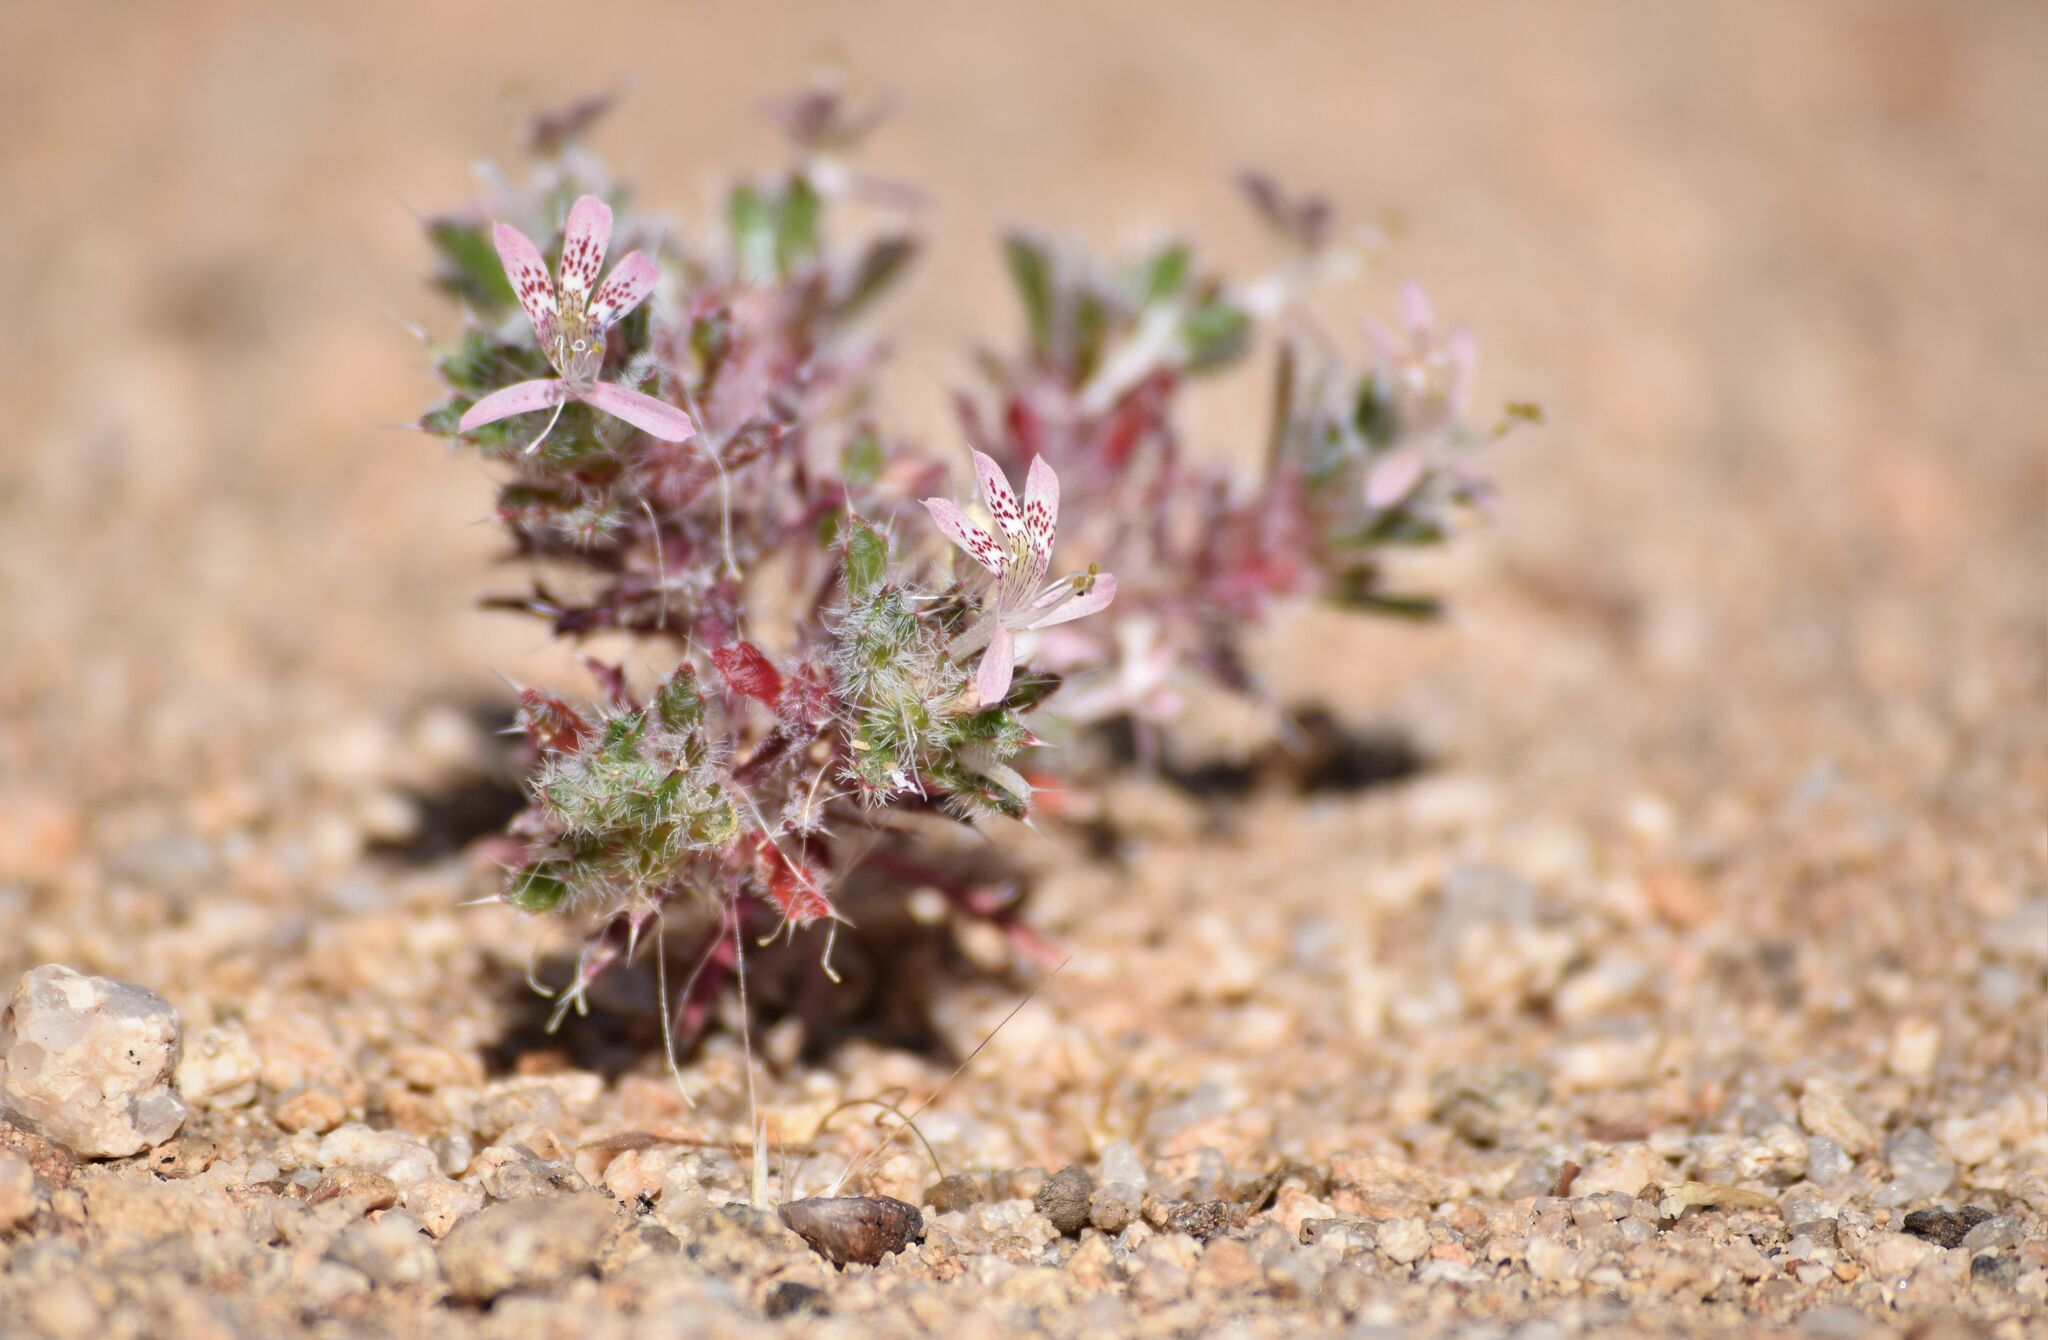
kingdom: Plantae
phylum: Tracheophyta
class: Magnoliopsida
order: Ericales
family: Polemoniaceae
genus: Loeseliastrum
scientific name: Loeseliastrum matthewsii
